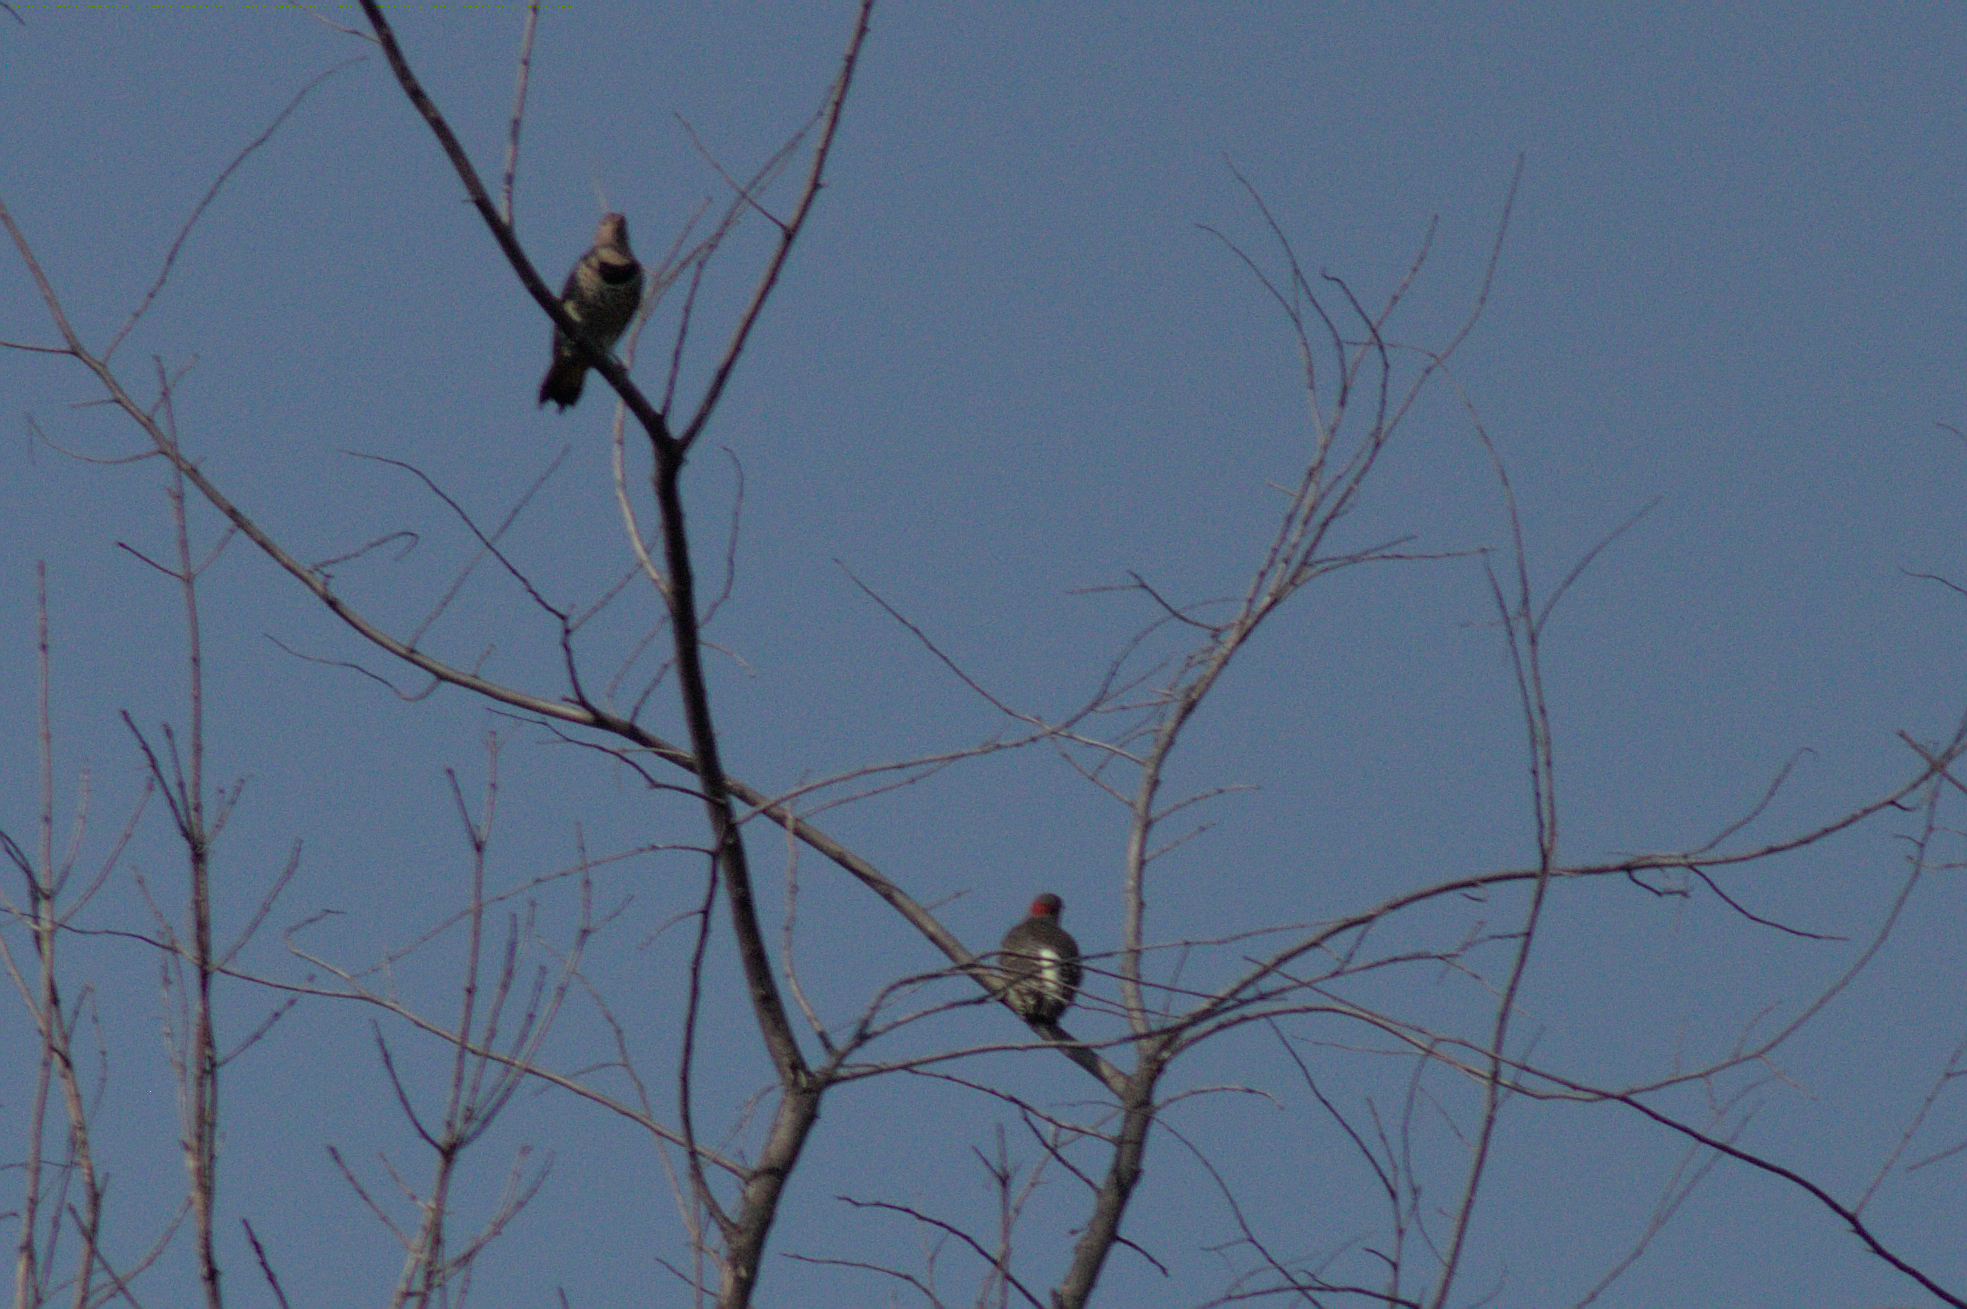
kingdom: Animalia
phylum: Chordata
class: Aves
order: Piciformes
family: Picidae
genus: Colaptes
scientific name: Colaptes auratus
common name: Northern flicker
